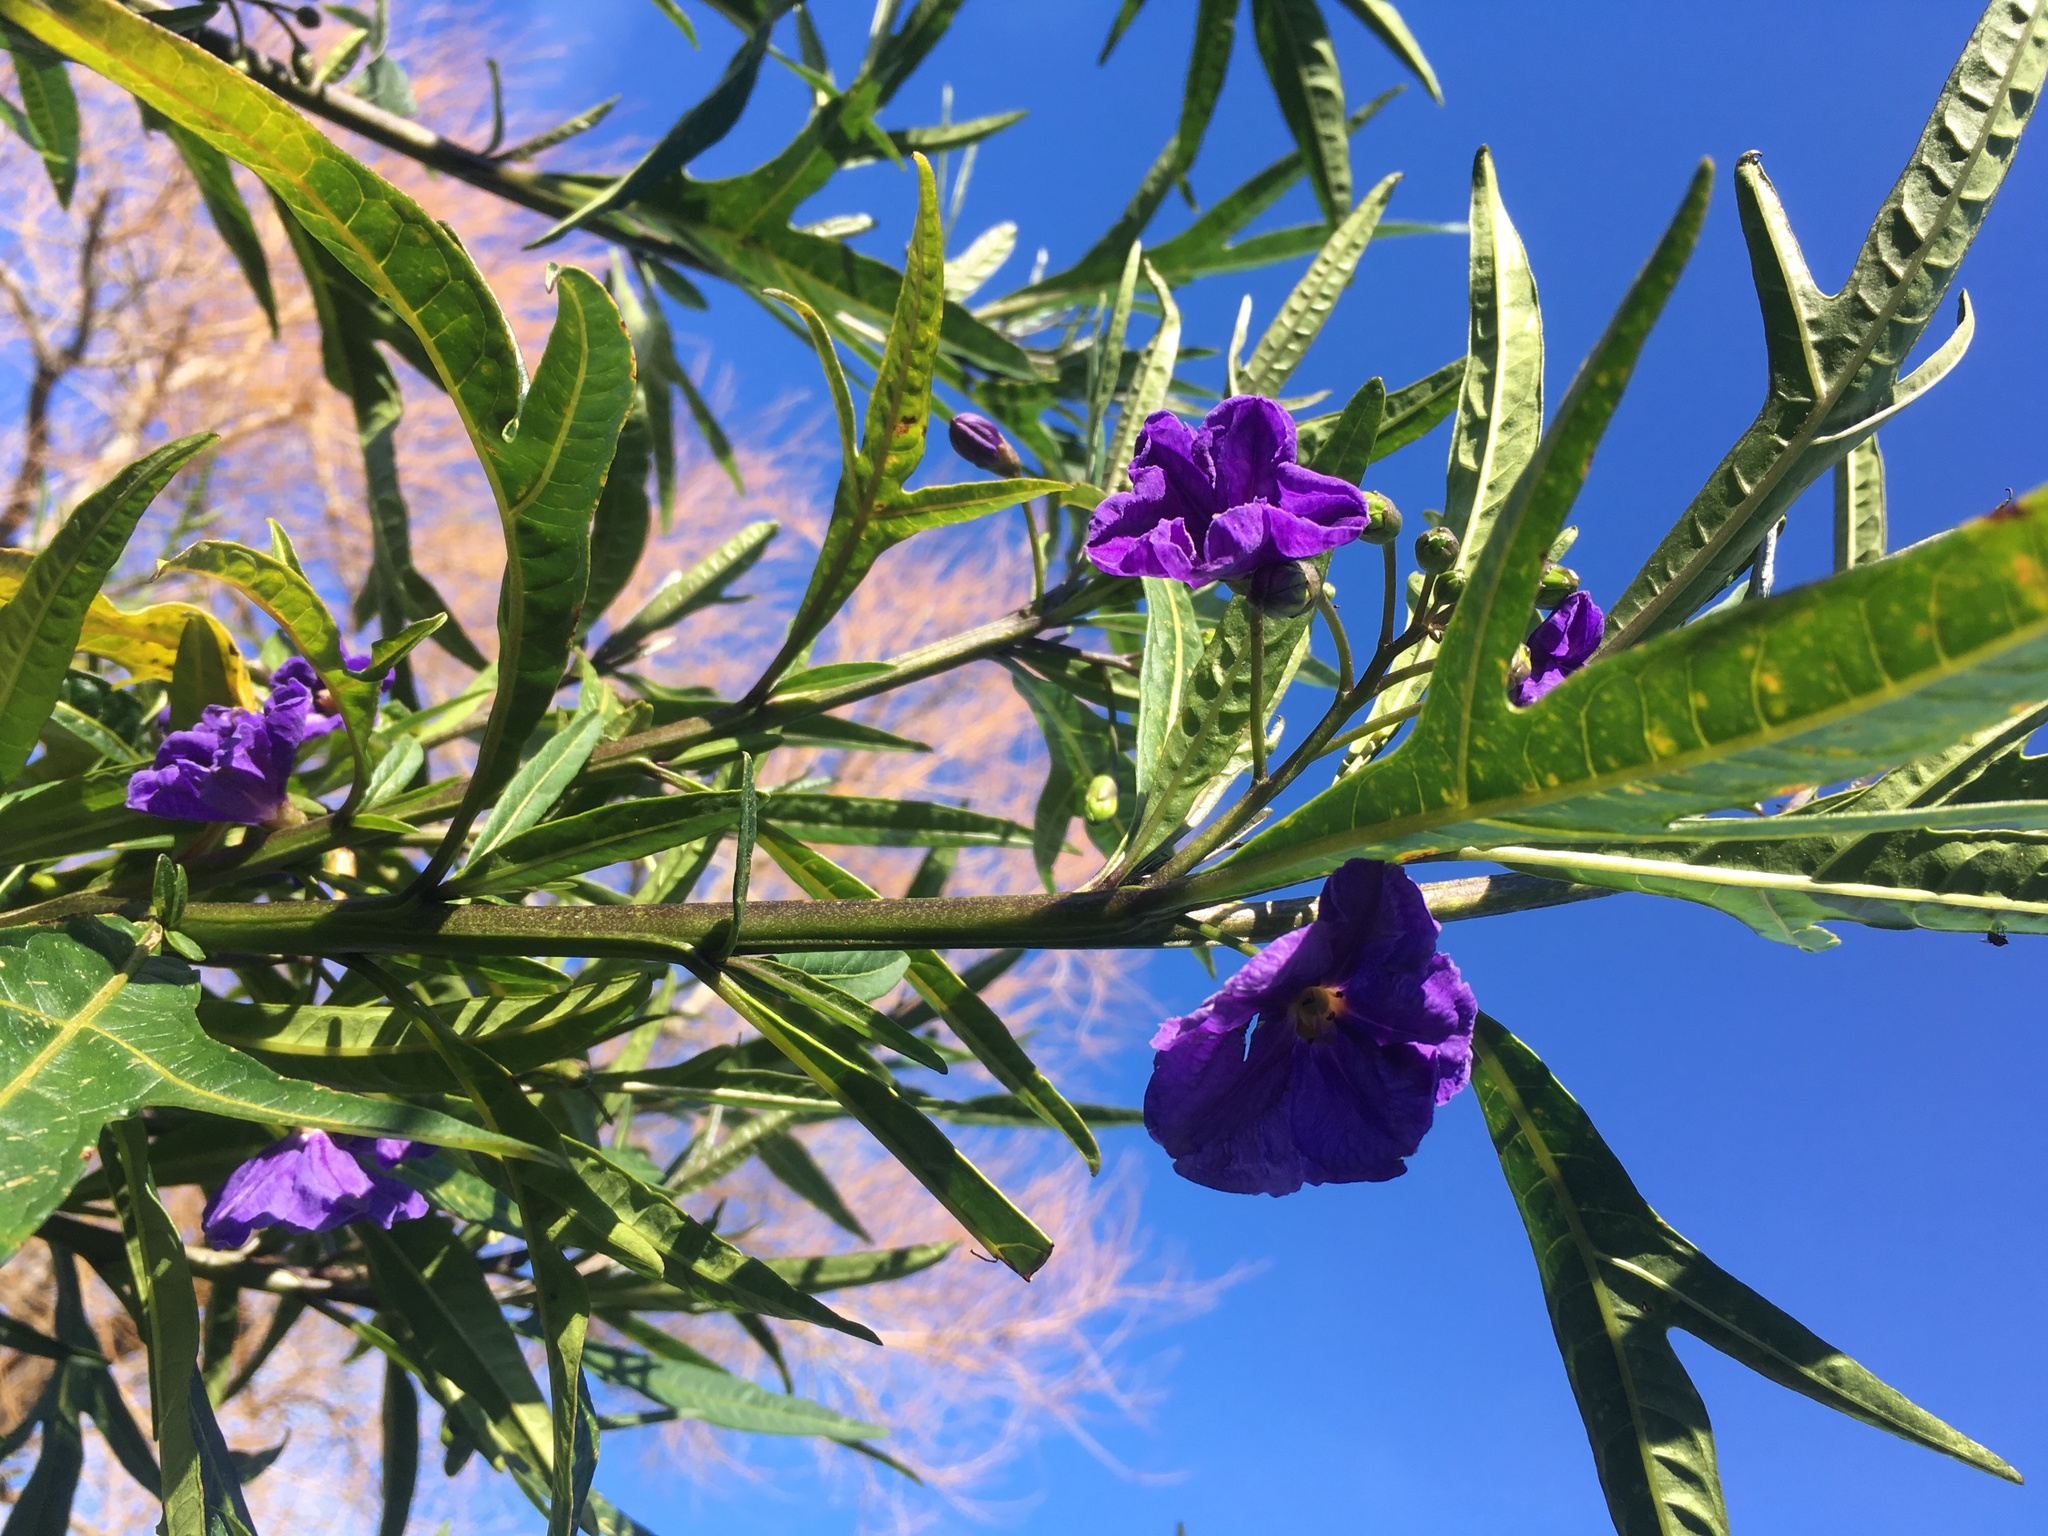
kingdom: Plantae
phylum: Tracheophyta
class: Magnoliopsida
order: Solanales
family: Solanaceae
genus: Solanum
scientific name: Solanum laciniatum
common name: Kangaroo-apple
